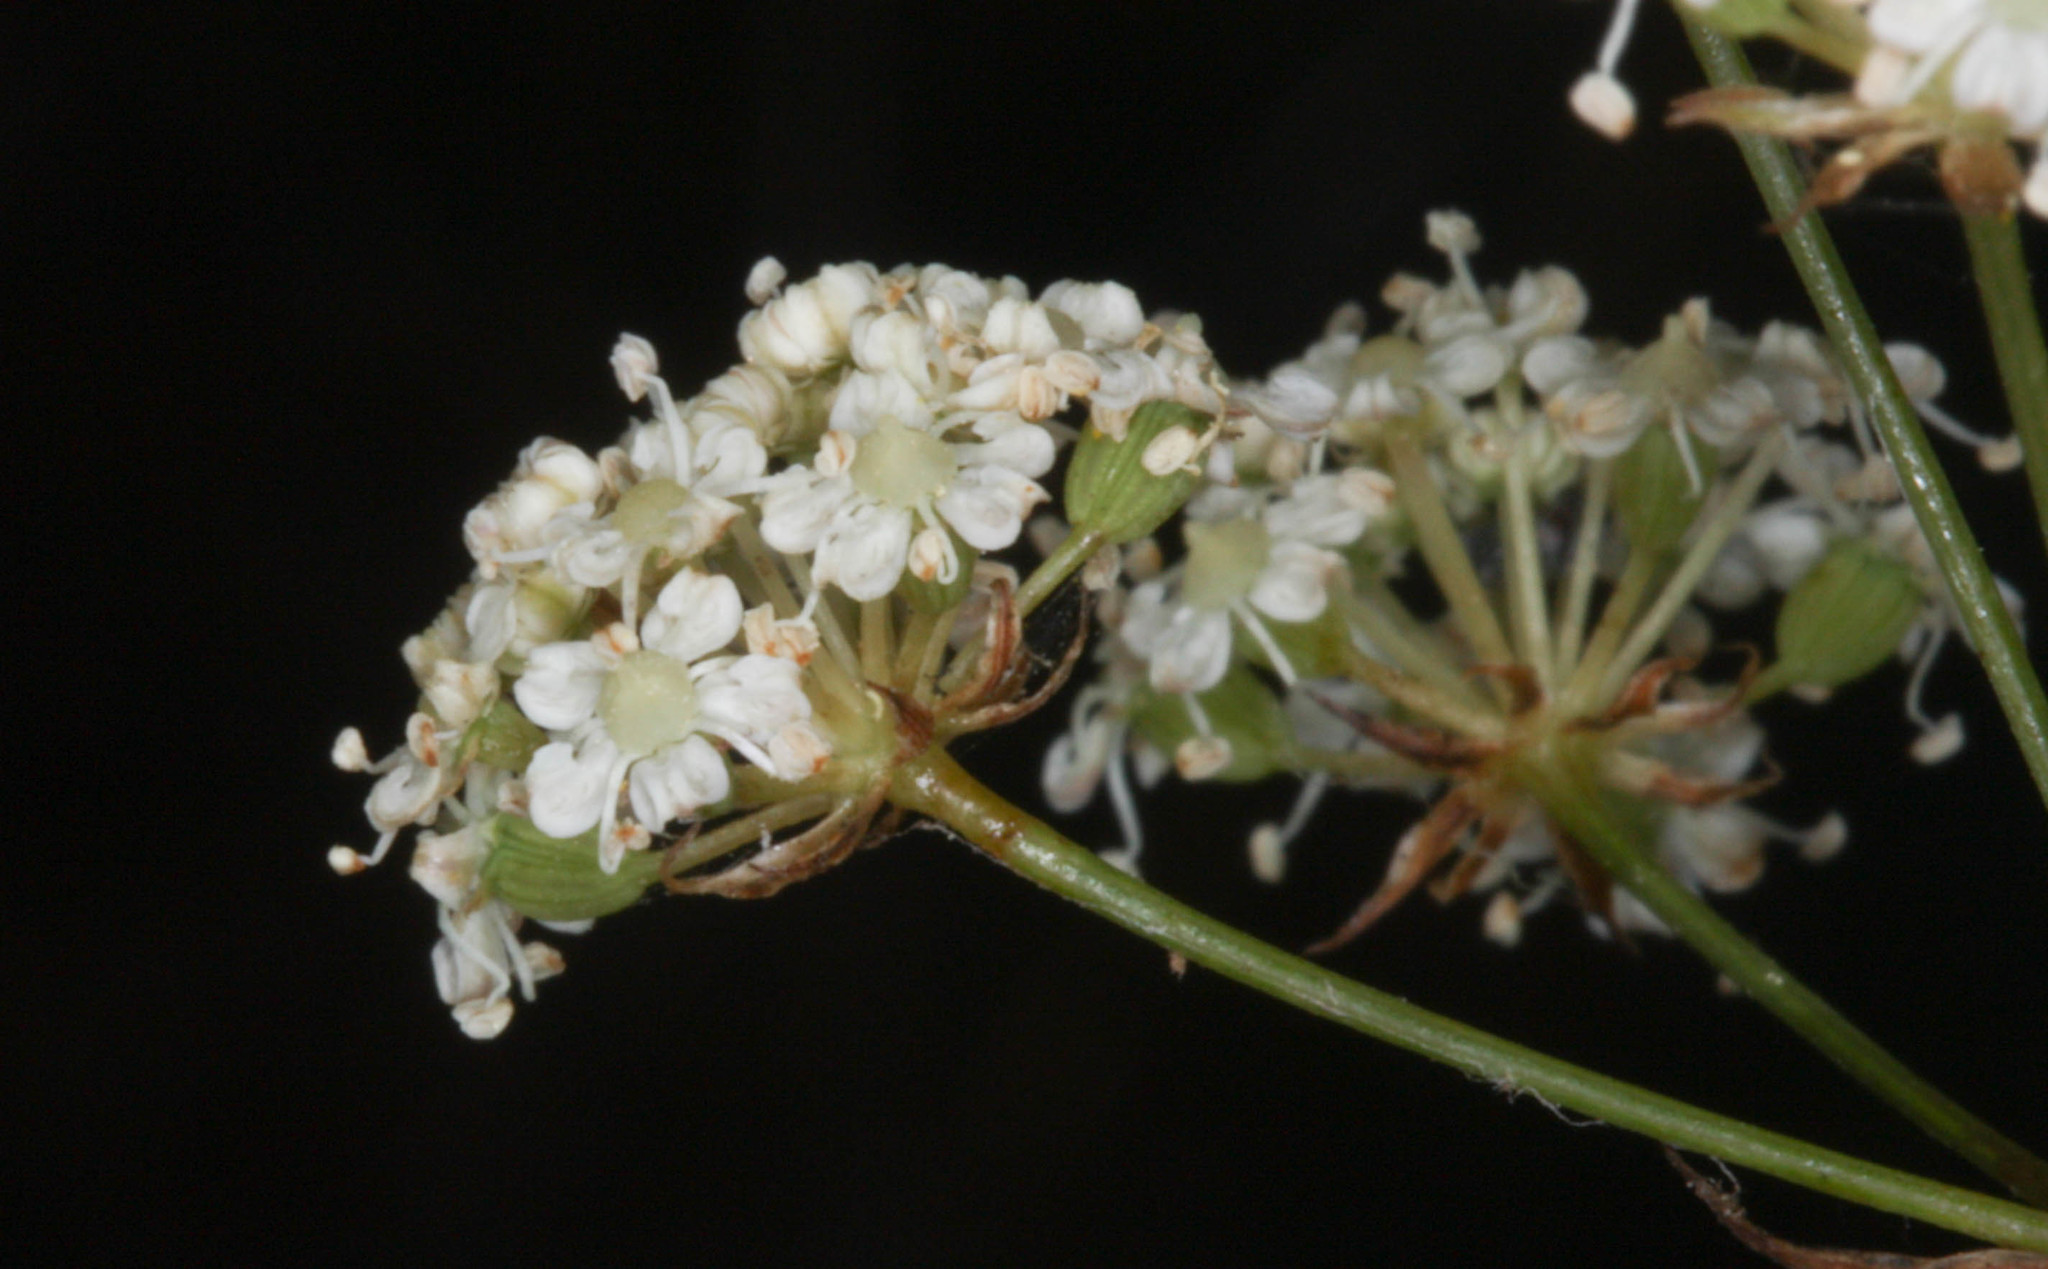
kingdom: Plantae
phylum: Tracheophyta
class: Magnoliopsida
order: Apiales
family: Apiaceae
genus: Perideridia
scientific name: Perideridia
